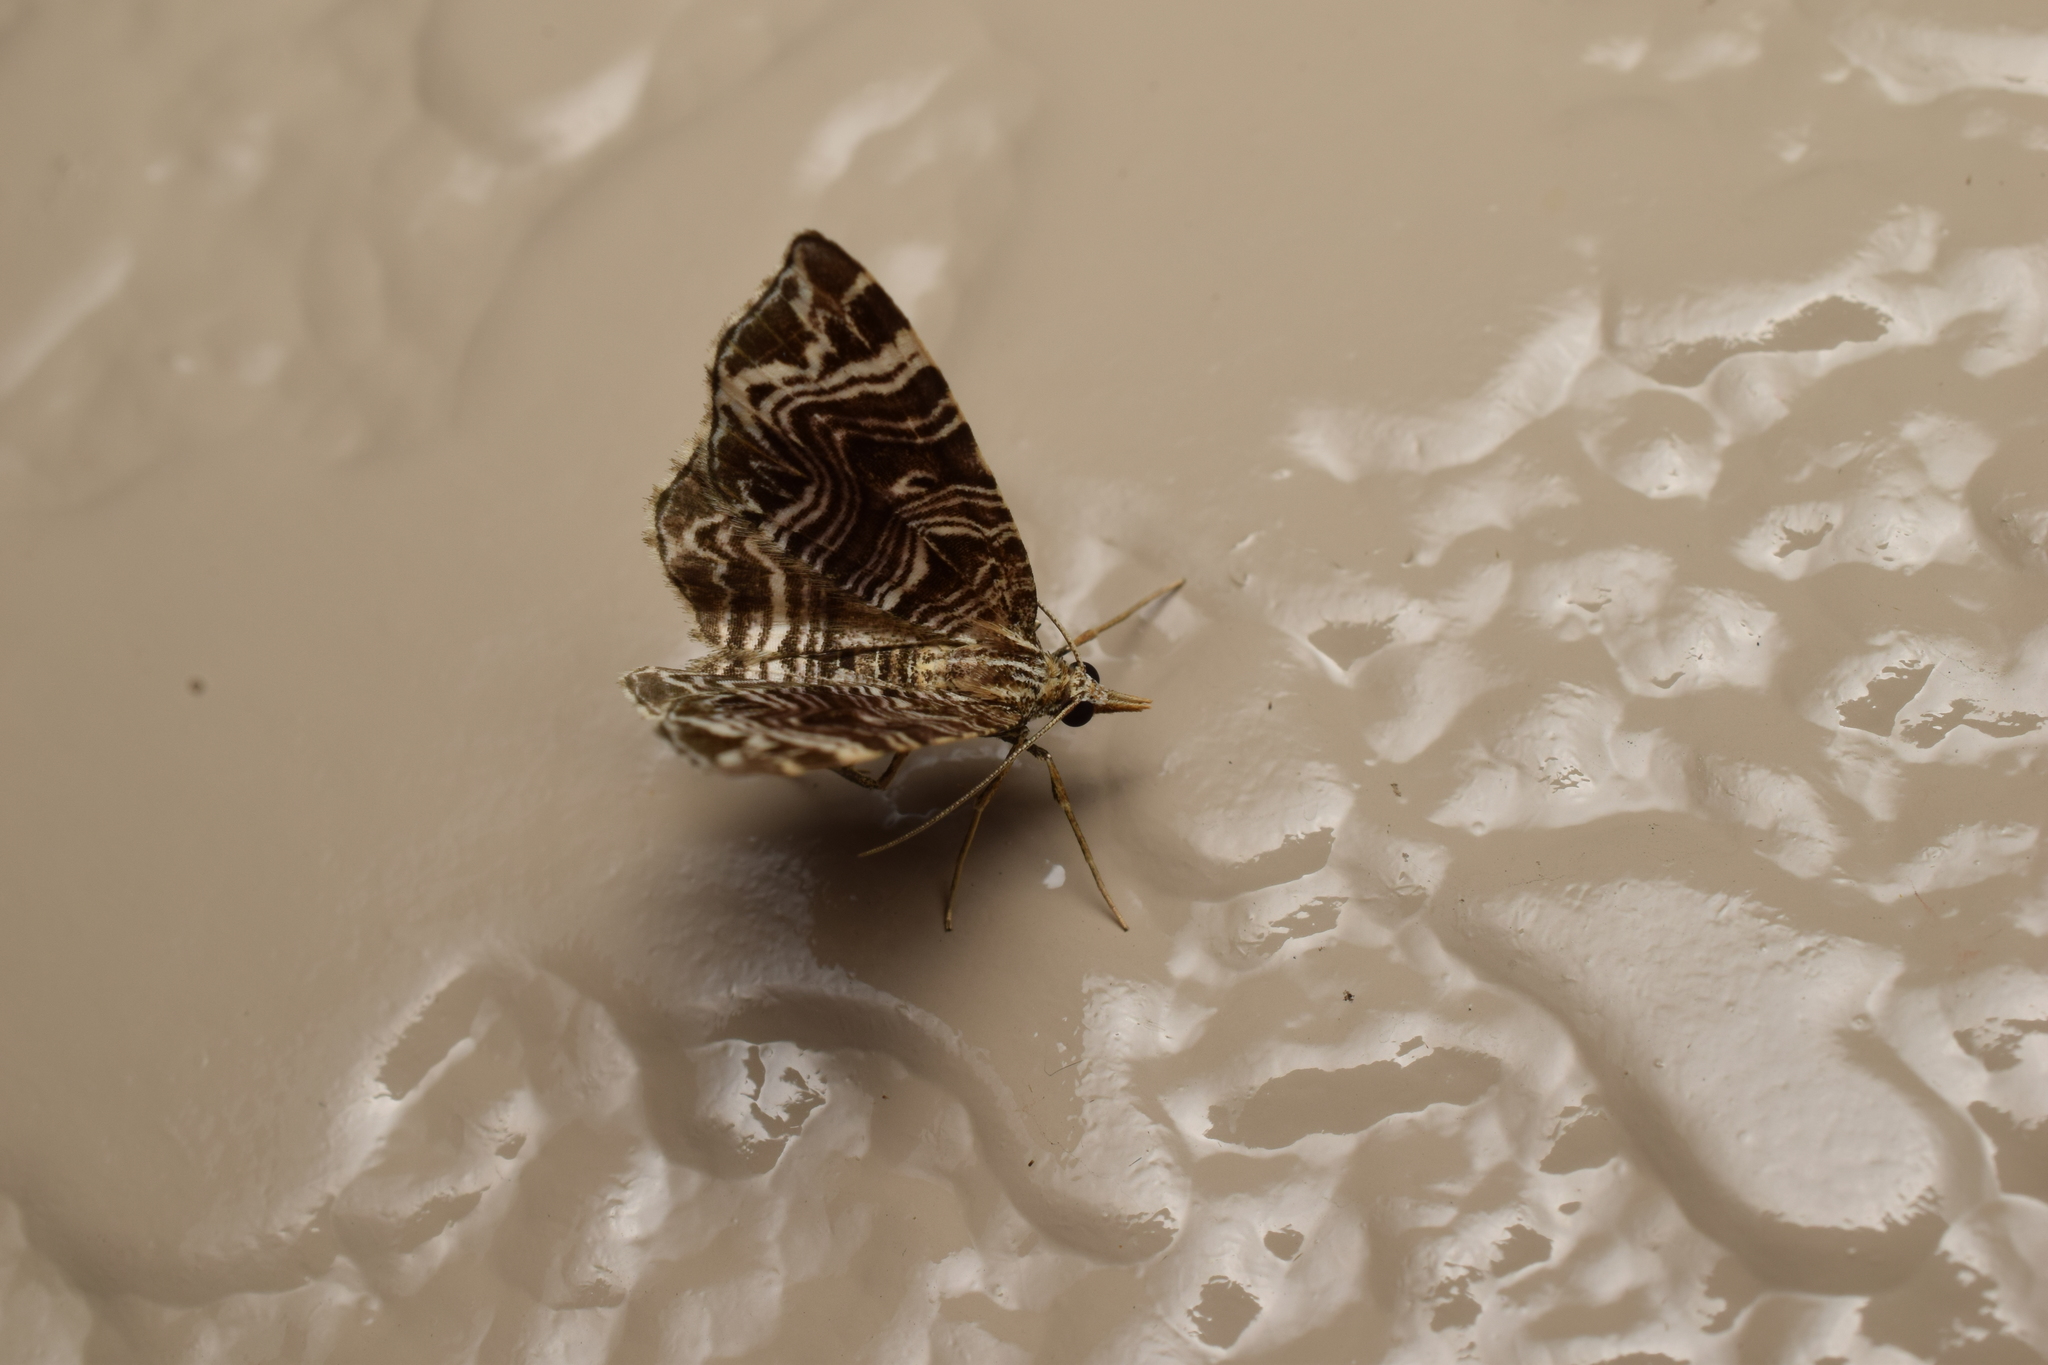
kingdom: Animalia
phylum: Arthropoda
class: Insecta
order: Lepidoptera
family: Geometridae
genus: Microlygris
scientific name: Microlygris multistriata
